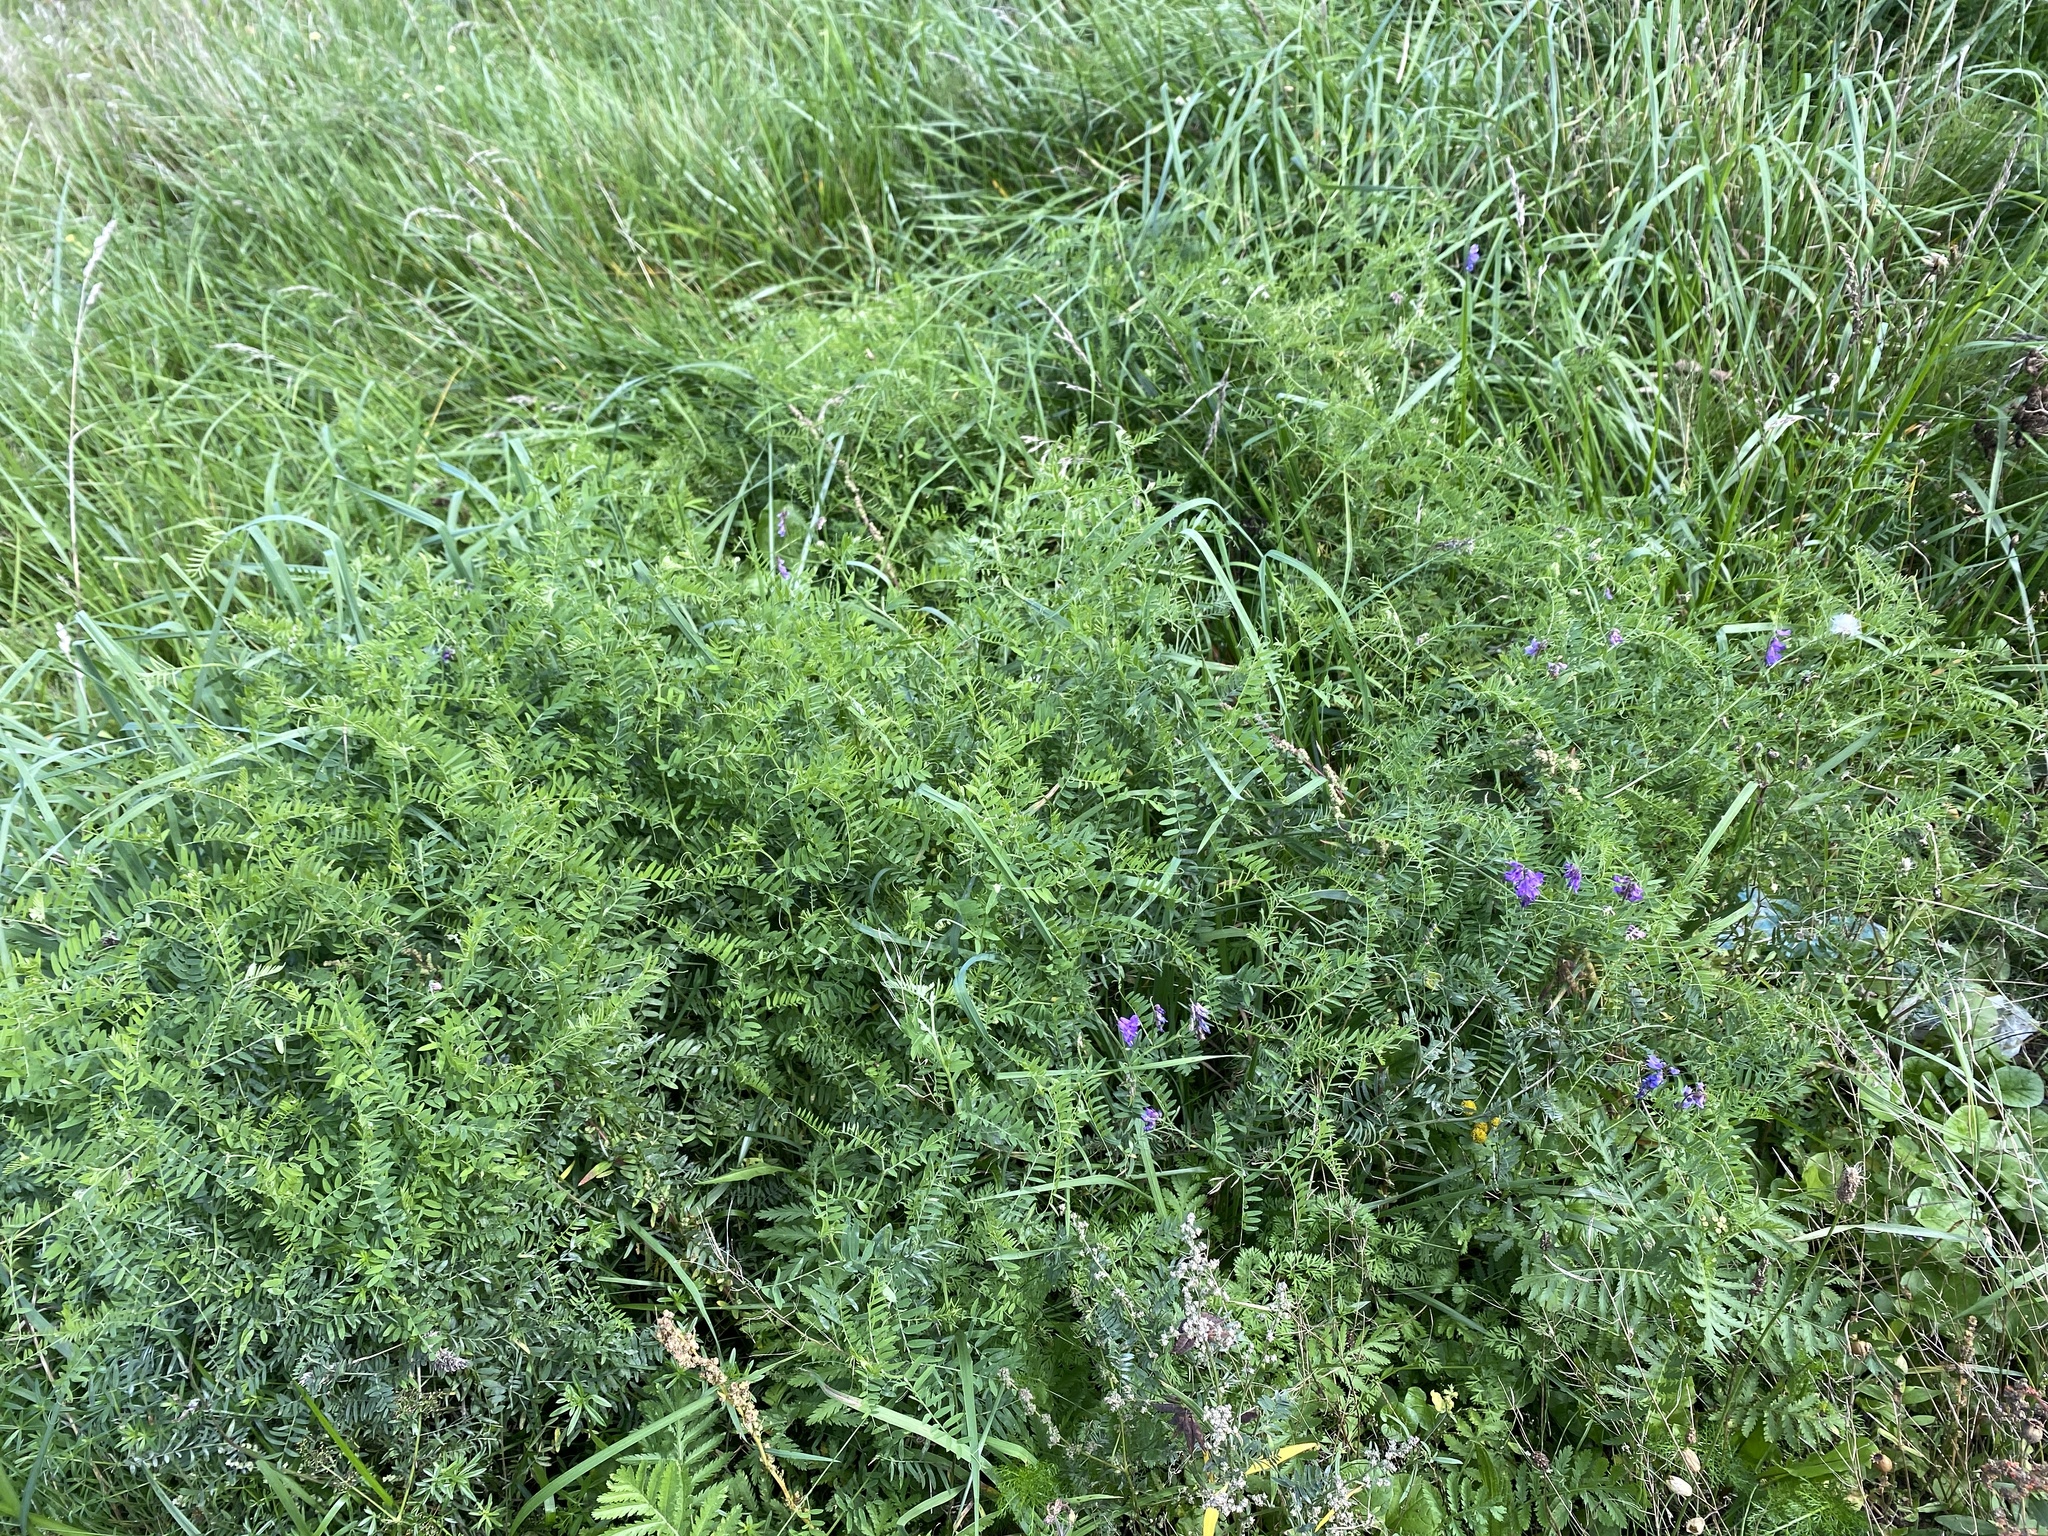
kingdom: Plantae
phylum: Tracheophyta
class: Magnoliopsida
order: Fabales
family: Fabaceae
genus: Vicia
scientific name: Vicia cracca
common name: Bird vetch
